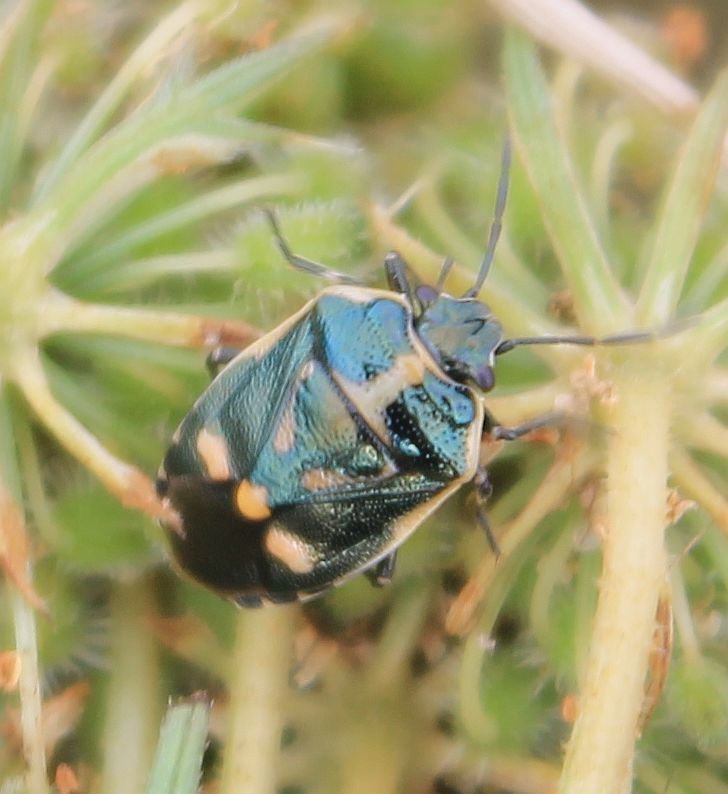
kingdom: Animalia
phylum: Arthropoda
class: Insecta
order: Hemiptera
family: Pentatomidae
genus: Eurydema
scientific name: Eurydema oleracea
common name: Cabbage bug
